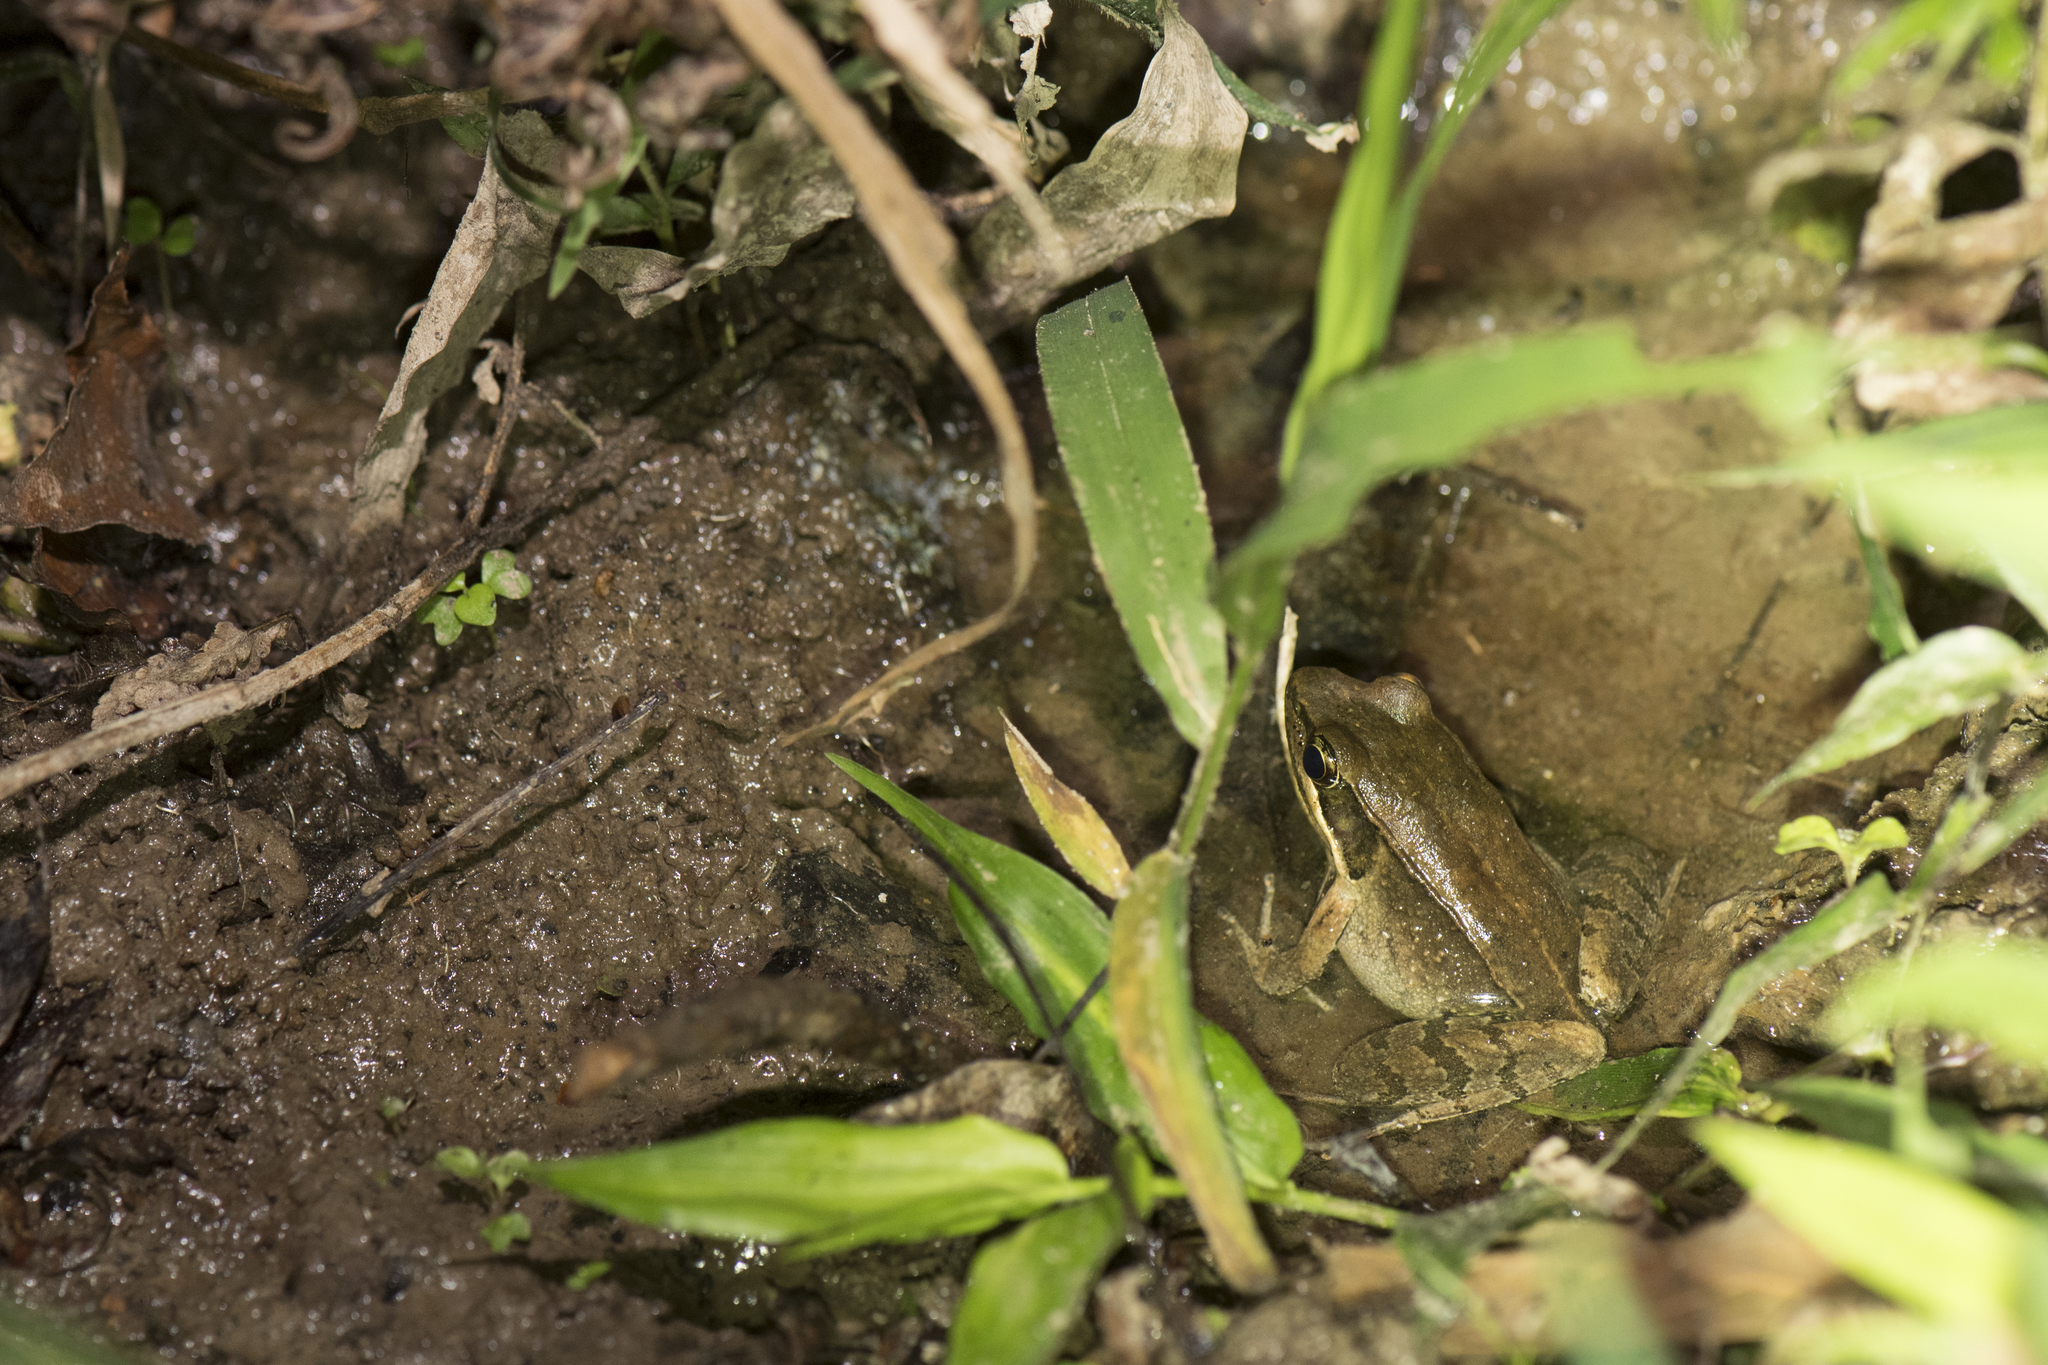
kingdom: Animalia
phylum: Chordata
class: Amphibia
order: Anura
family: Ranidae
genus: Nidirana
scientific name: Nidirana adenopleura
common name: Olive frog
